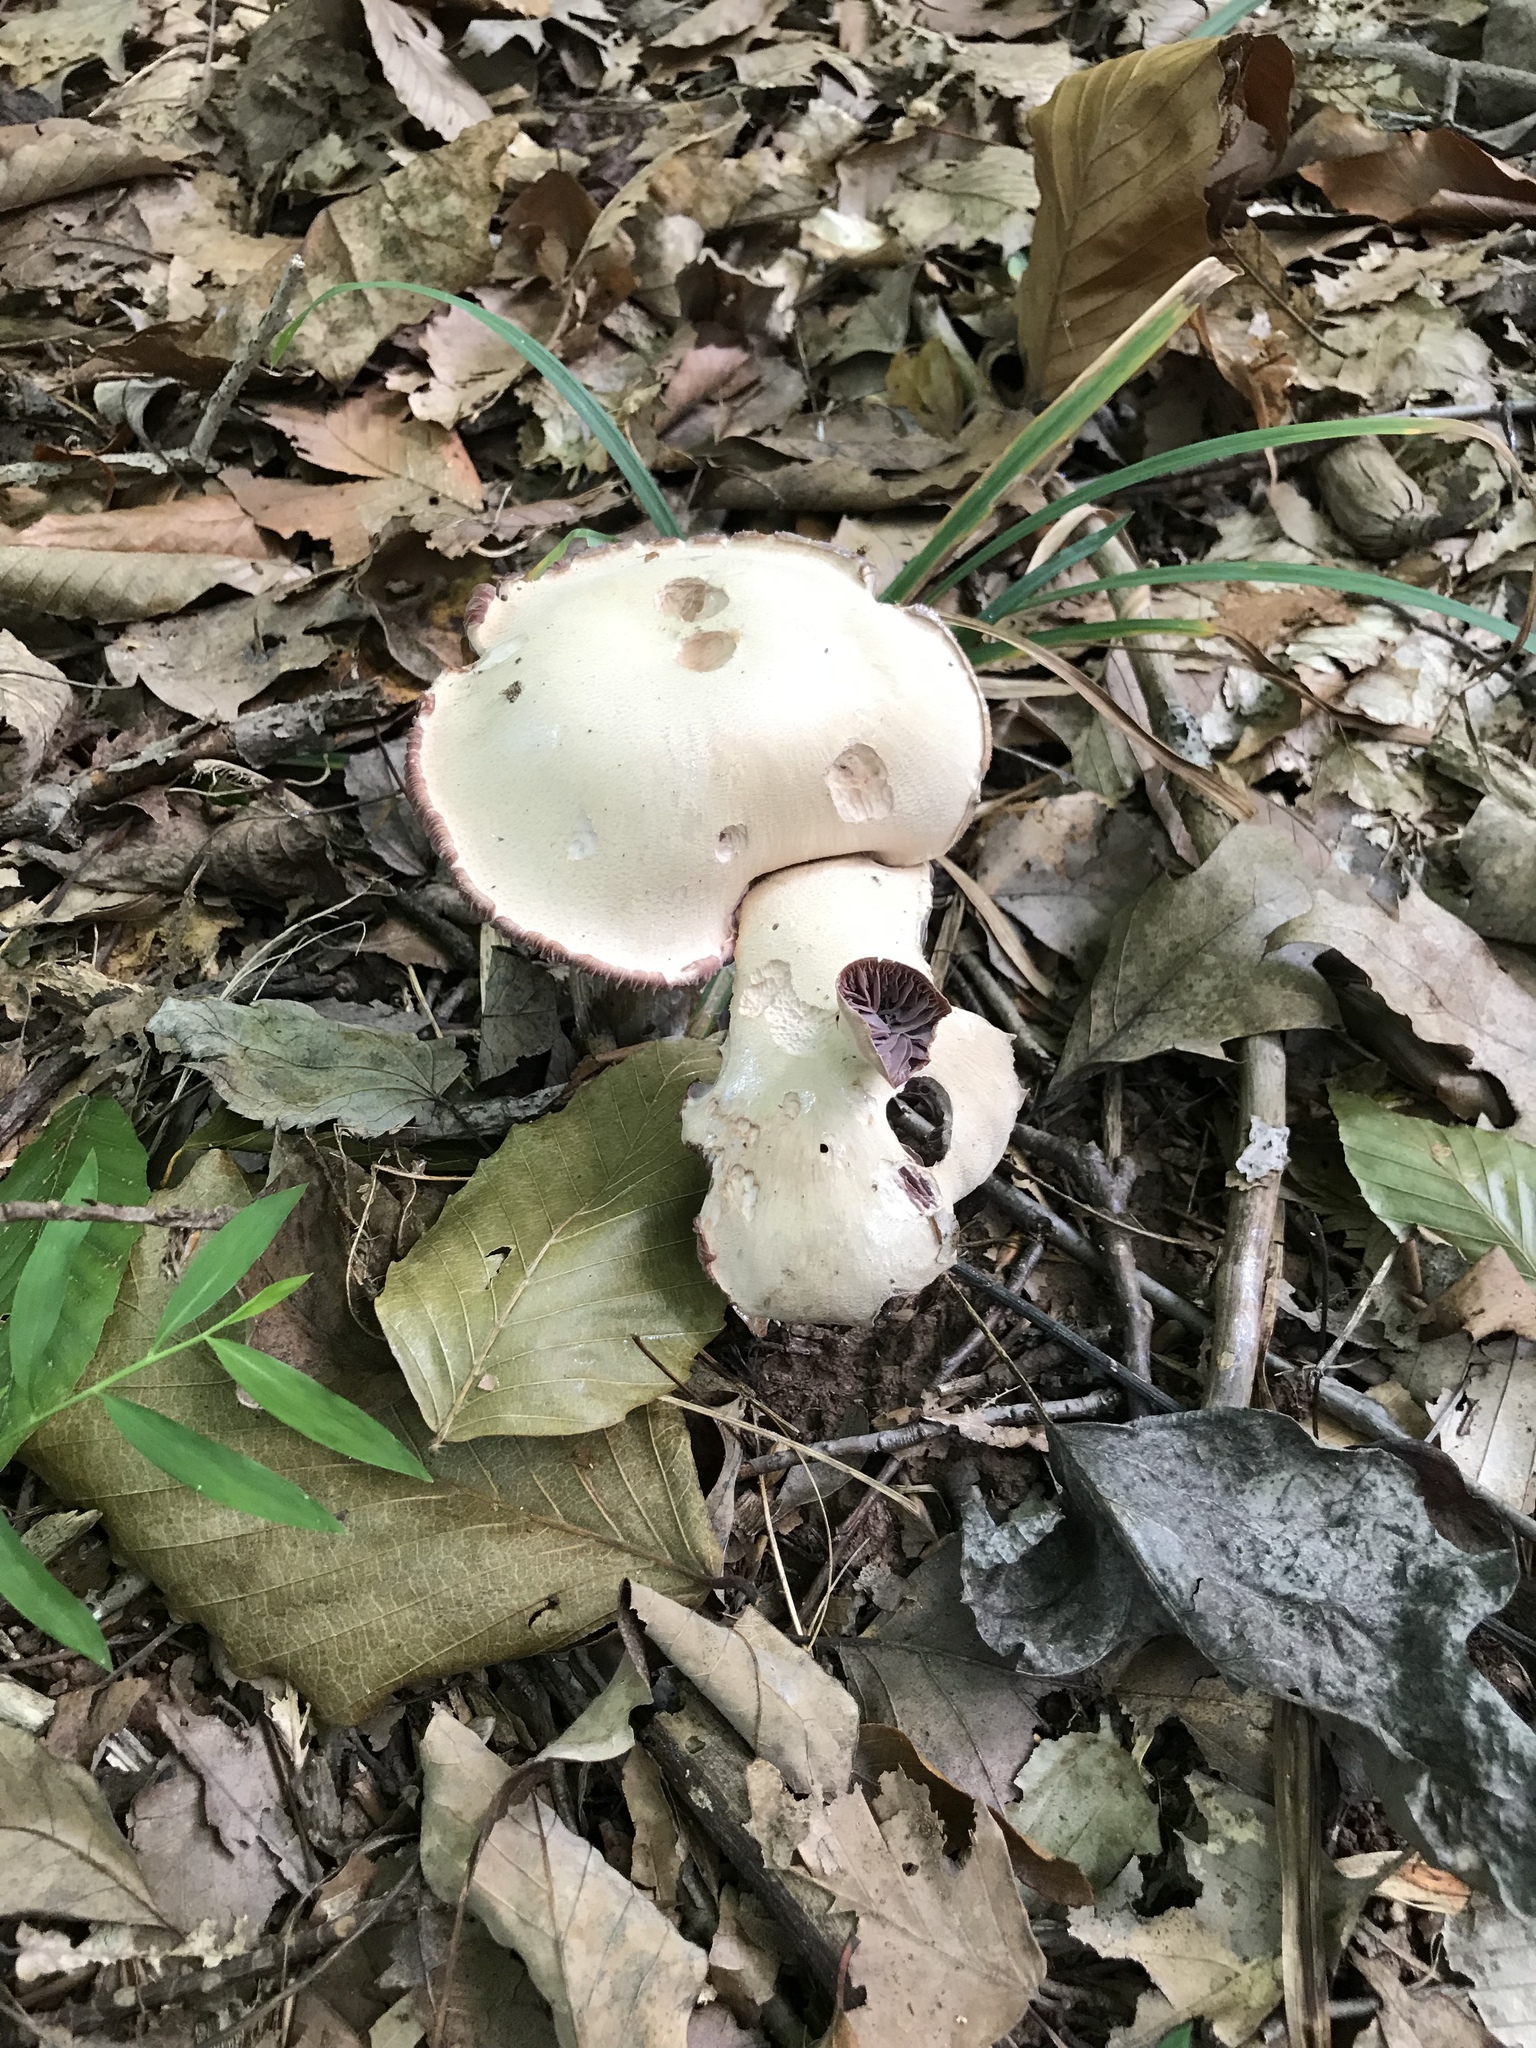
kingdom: Fungi
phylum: Basidiomycota
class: Agaricomycetes
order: Agaricales
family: Hydnangiaceae
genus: Laccaria
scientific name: Laccaria ochropurpurea
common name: Purple laccaria
